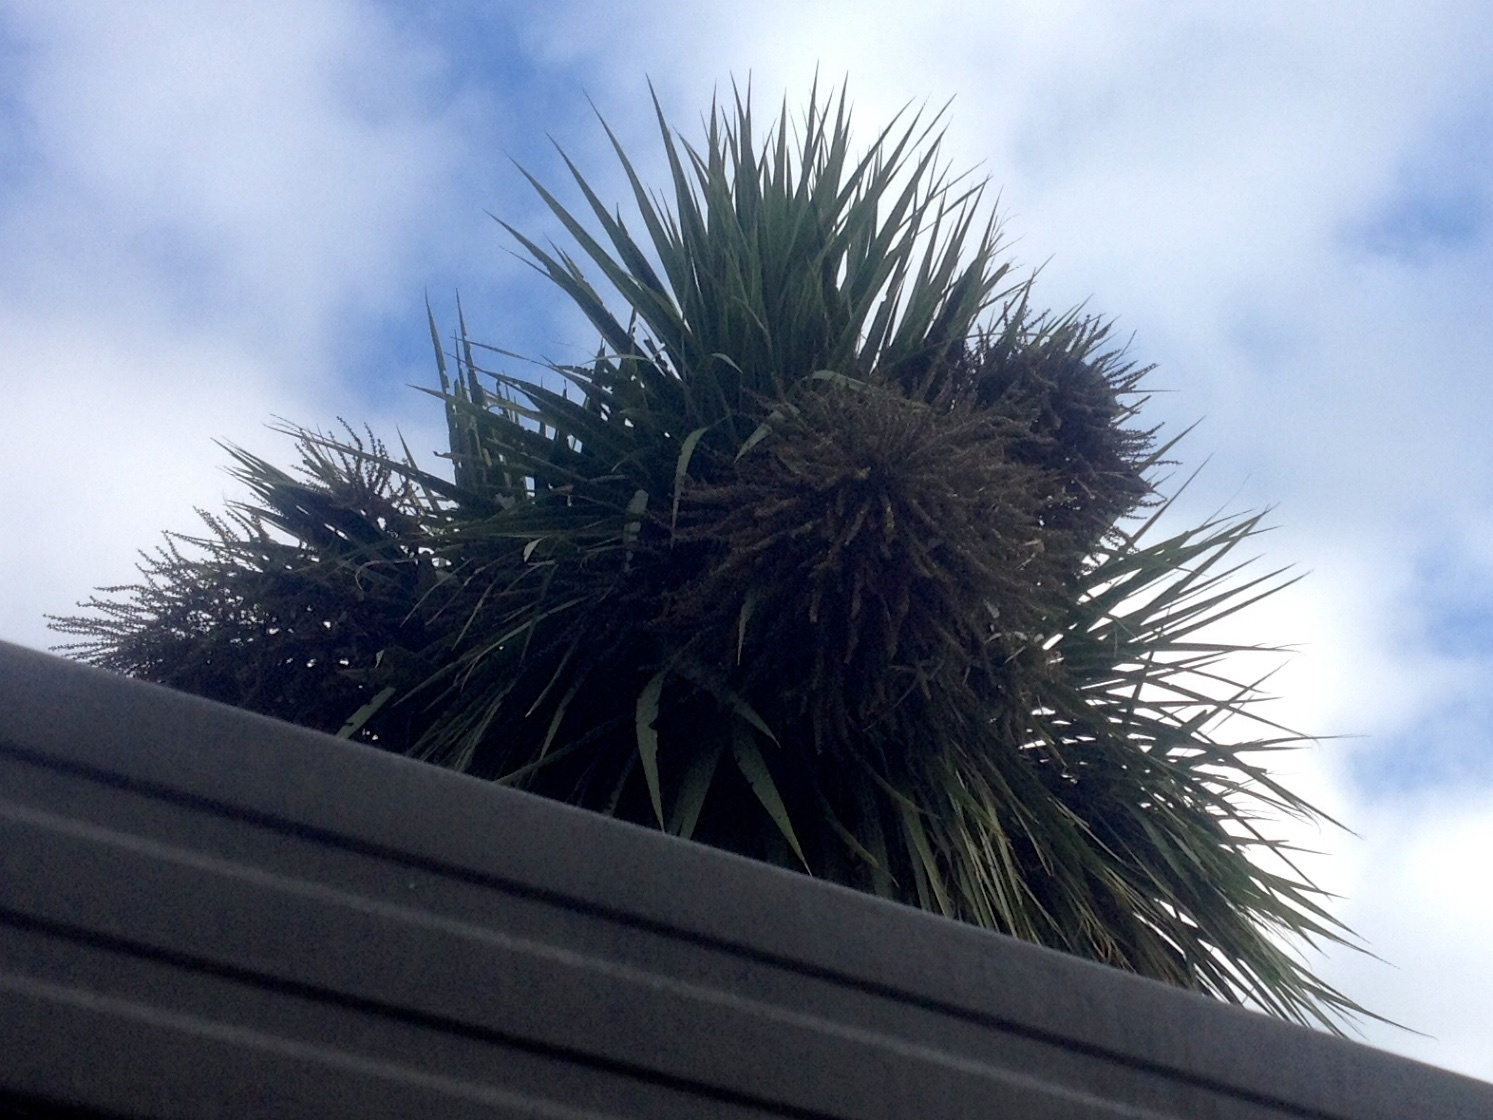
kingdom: Animalia
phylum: Chordata
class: Aves
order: Columbiformes
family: Columbidae
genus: Hemiphaga
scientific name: Hemiphaga novaeseelandiae
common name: New zealand pigeon
